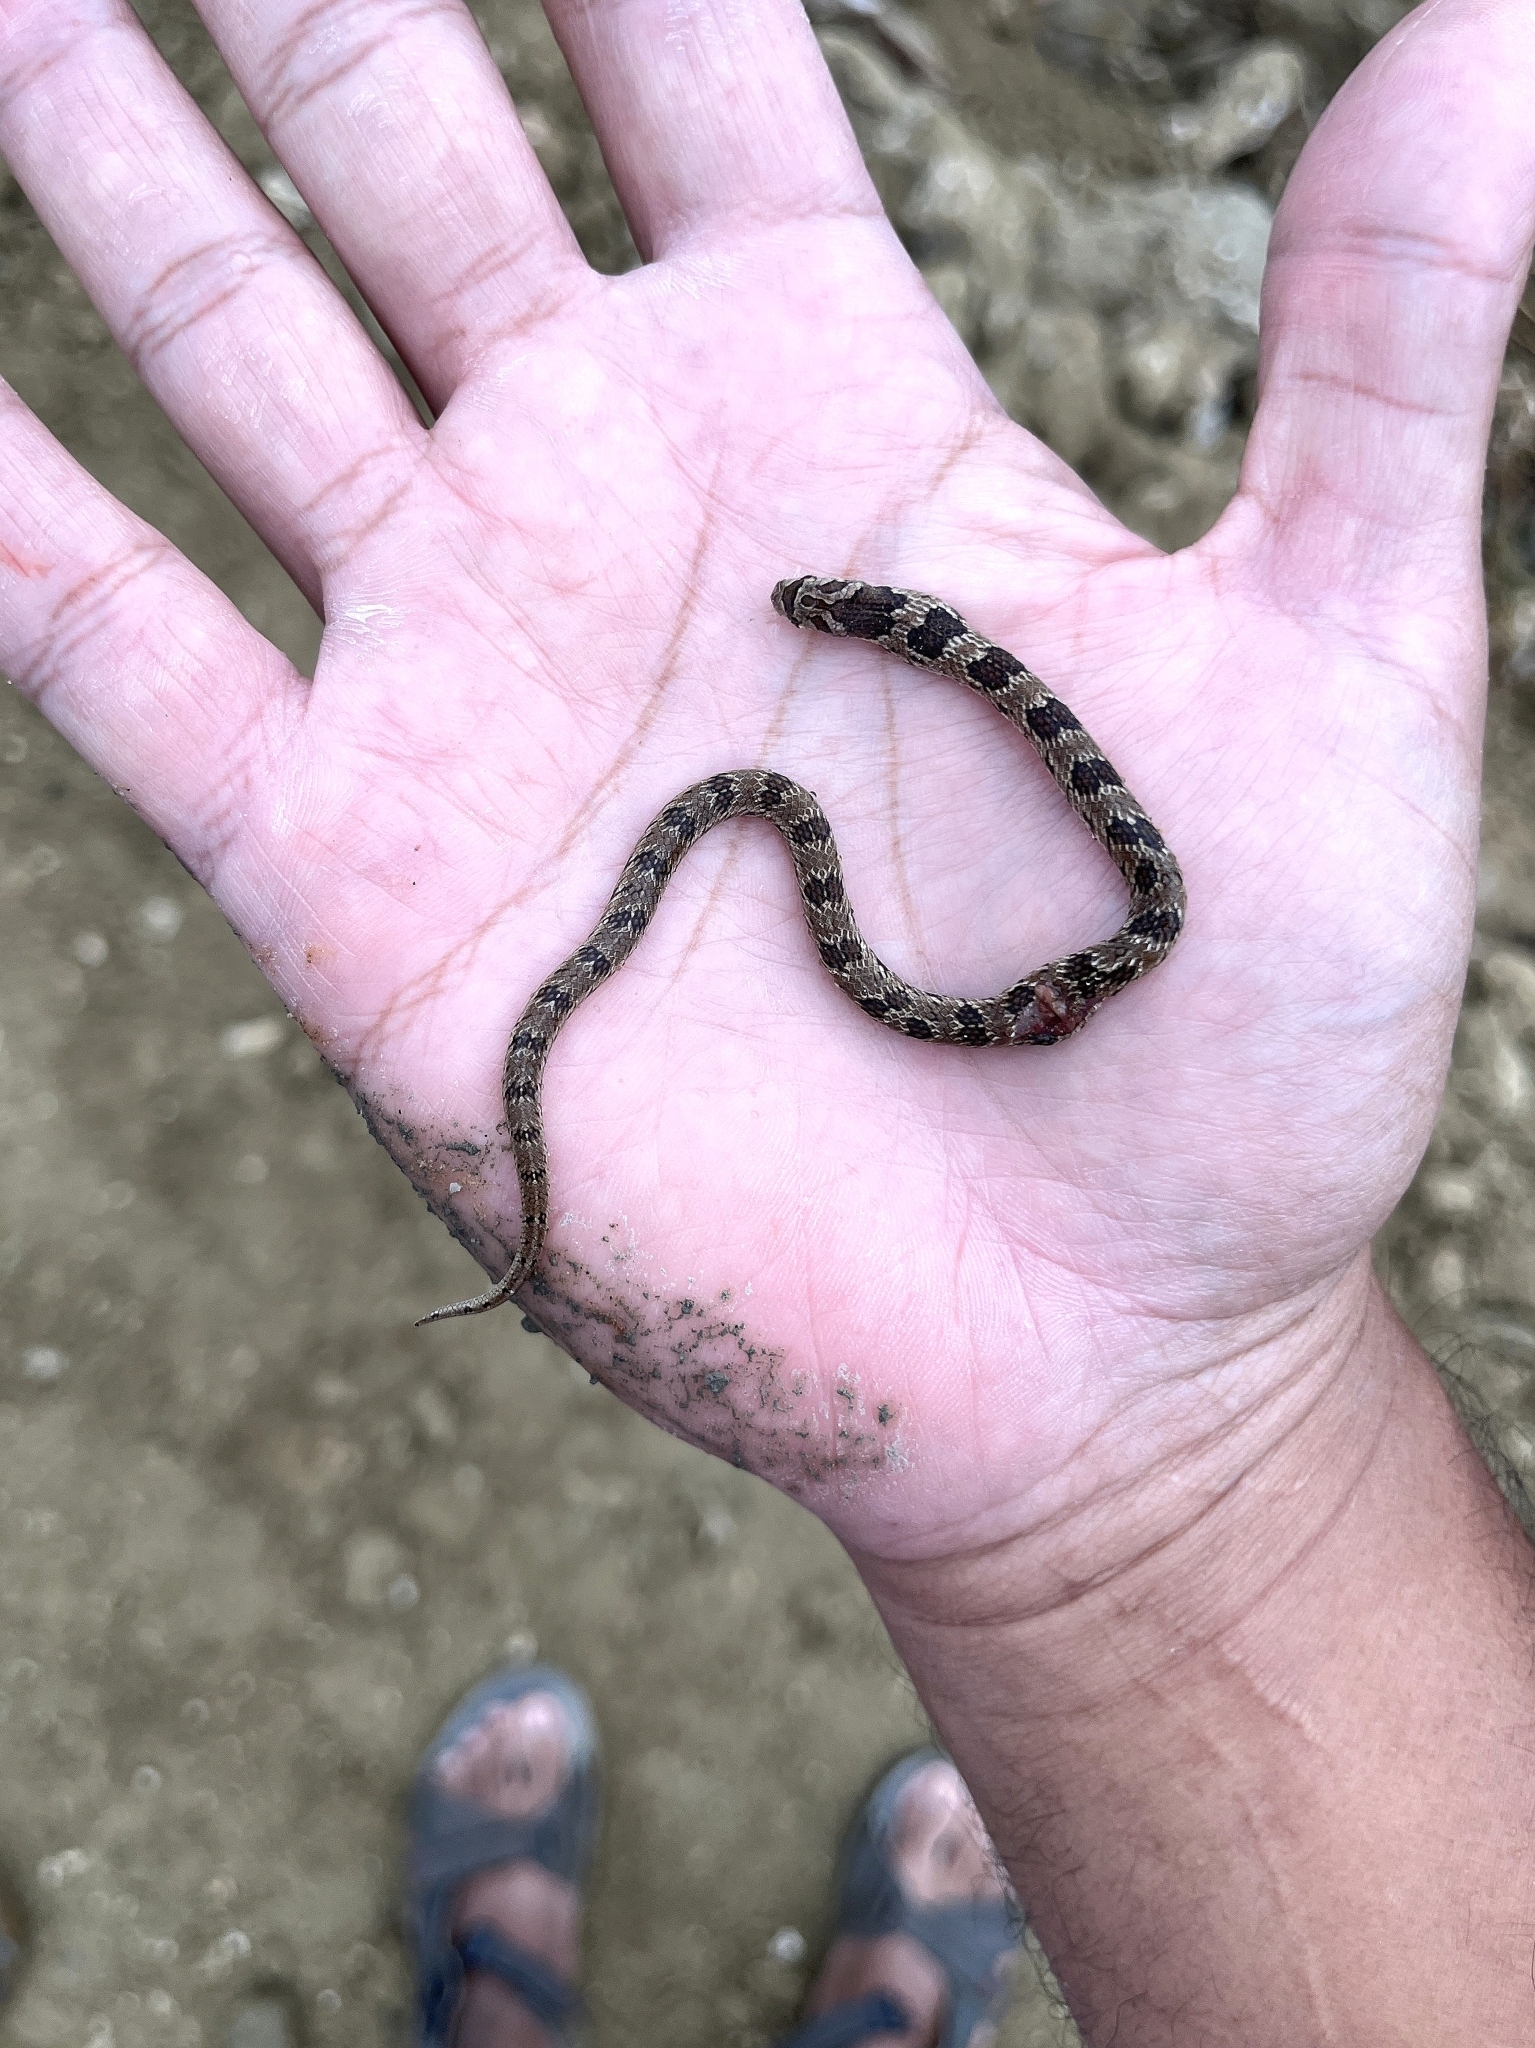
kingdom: Animalia
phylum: Chordata
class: Squamata
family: Colubridae
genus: Oligodon
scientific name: Oligodon taeniolatus
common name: Loos snake
